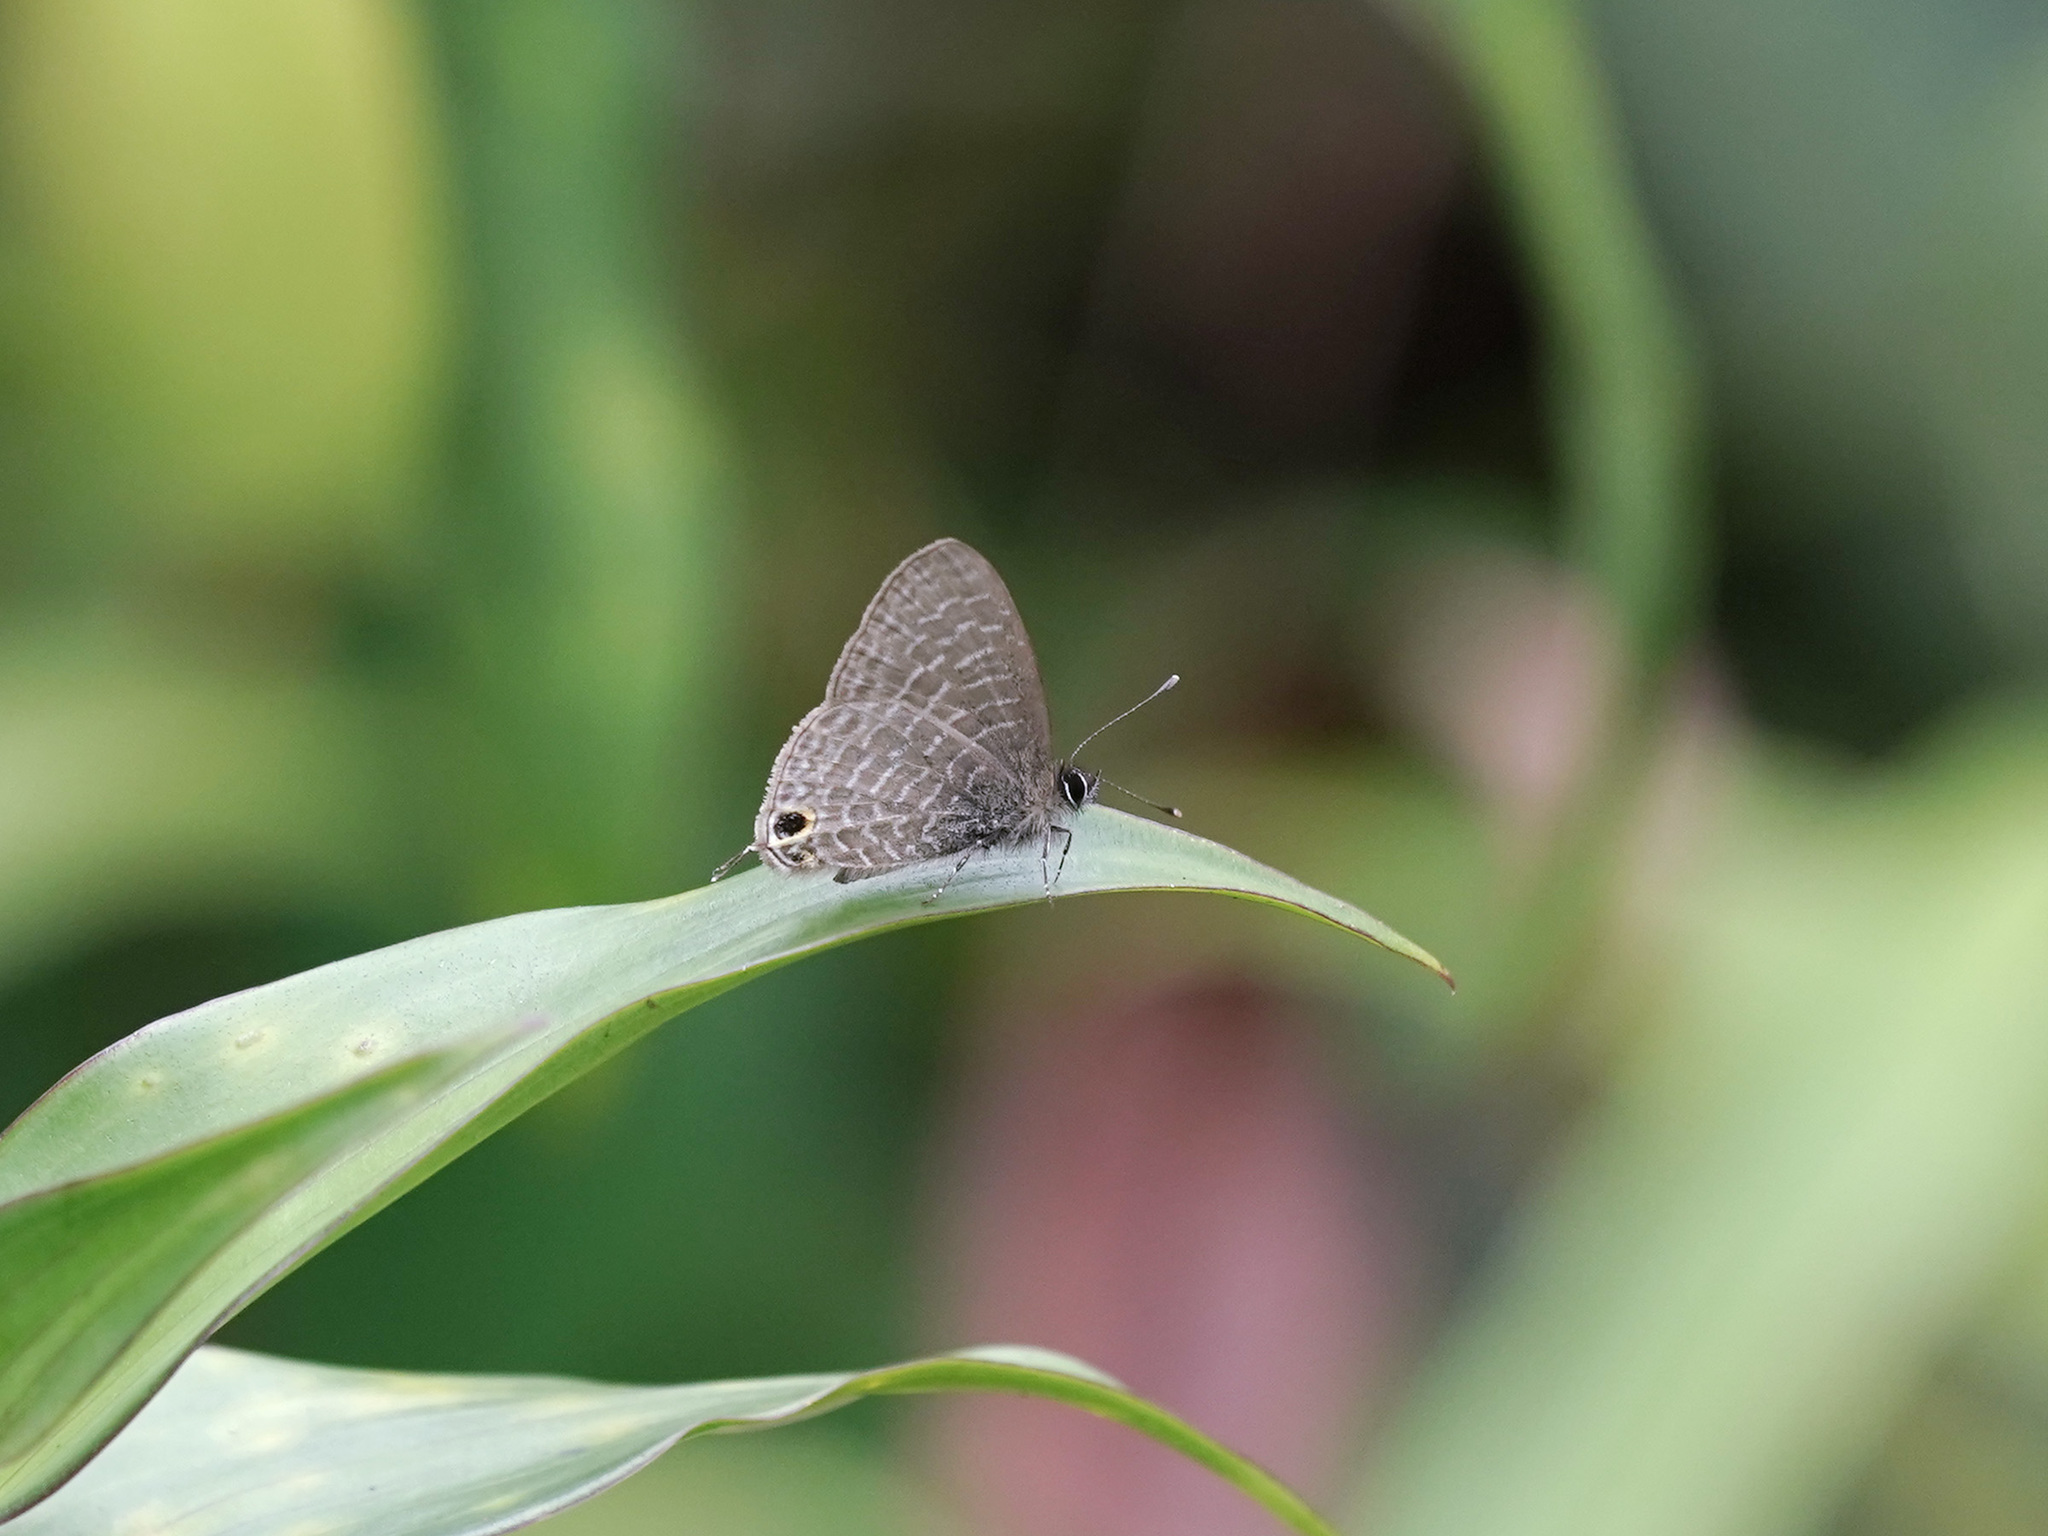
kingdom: Animalia
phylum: Arthropoda
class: Insecta
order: Lepidoptera
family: Lycaenidae
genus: Ionolyce
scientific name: Ionolyce helicon
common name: Pointed line blue
